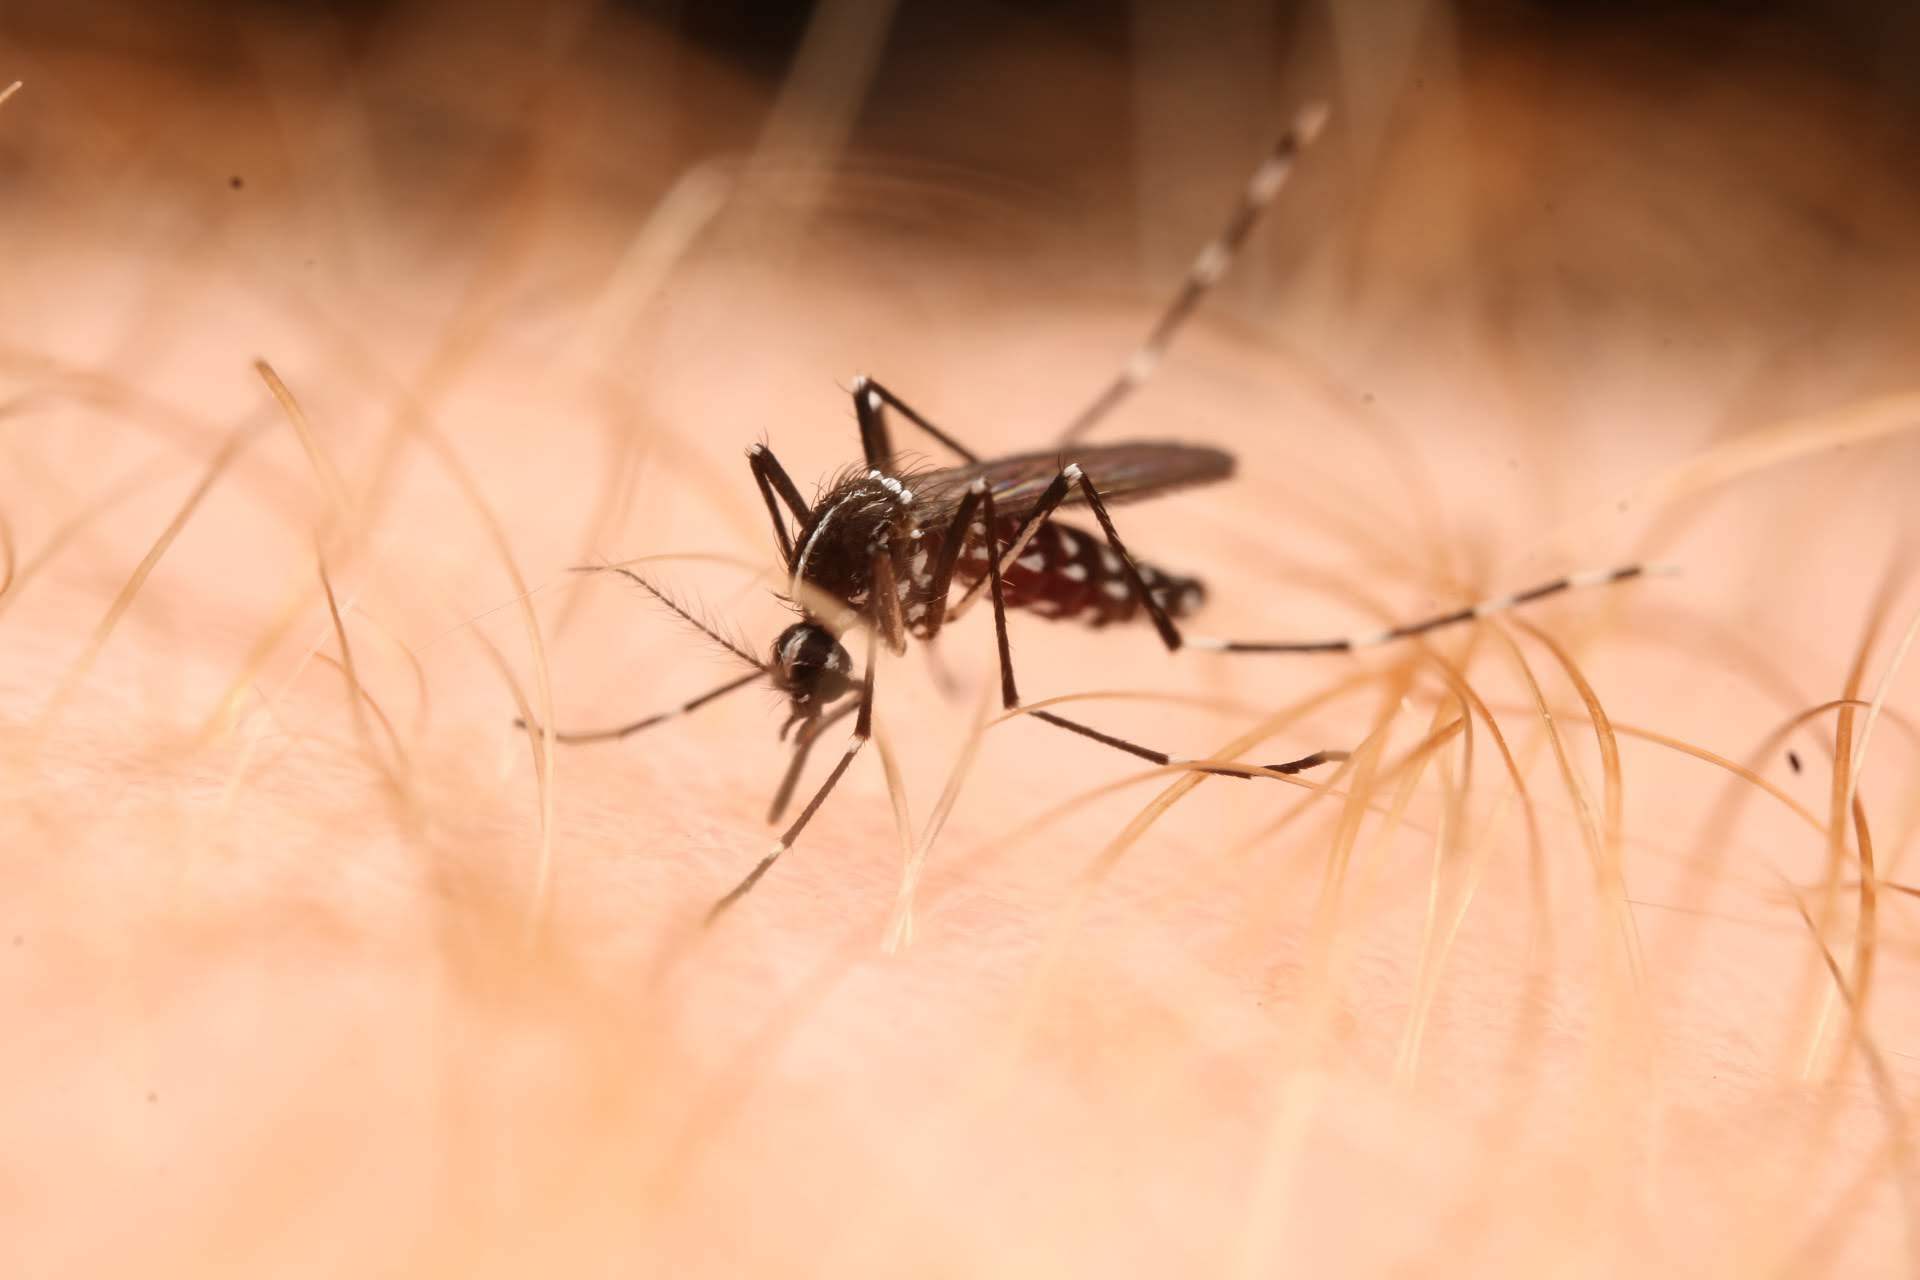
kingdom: Animalia
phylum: Arthropoda
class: Insecta
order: Diptera
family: Culicidae
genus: Aedes
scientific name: Aedes albopictus
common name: Tiger mosquito
